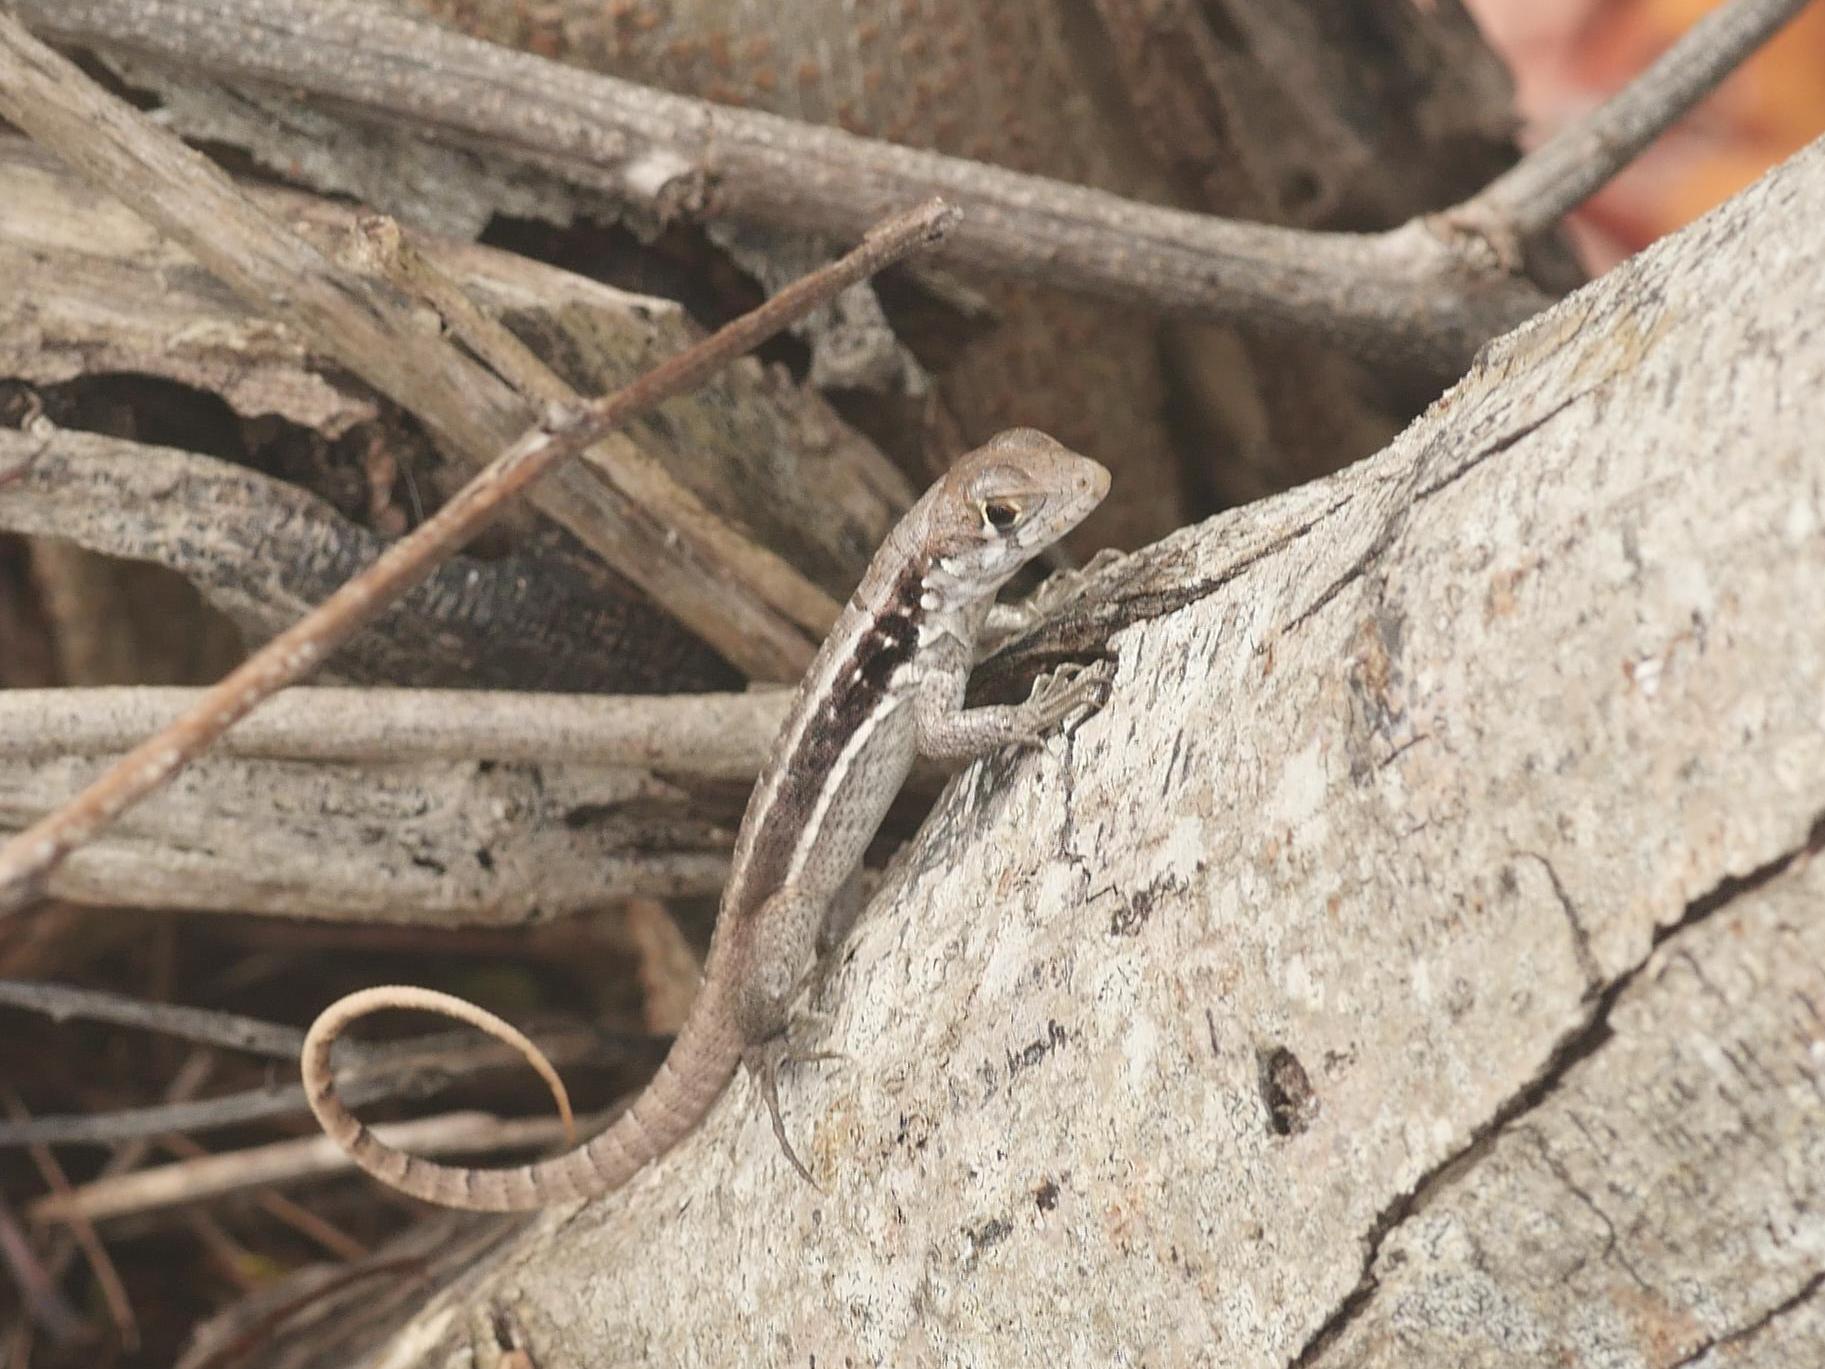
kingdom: Animalia
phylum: Chordata
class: Squamata
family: Leiocephalidae
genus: Leiocephalus
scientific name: Leiocephalus psammodromus
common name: Bastion cay curlytail lizard
